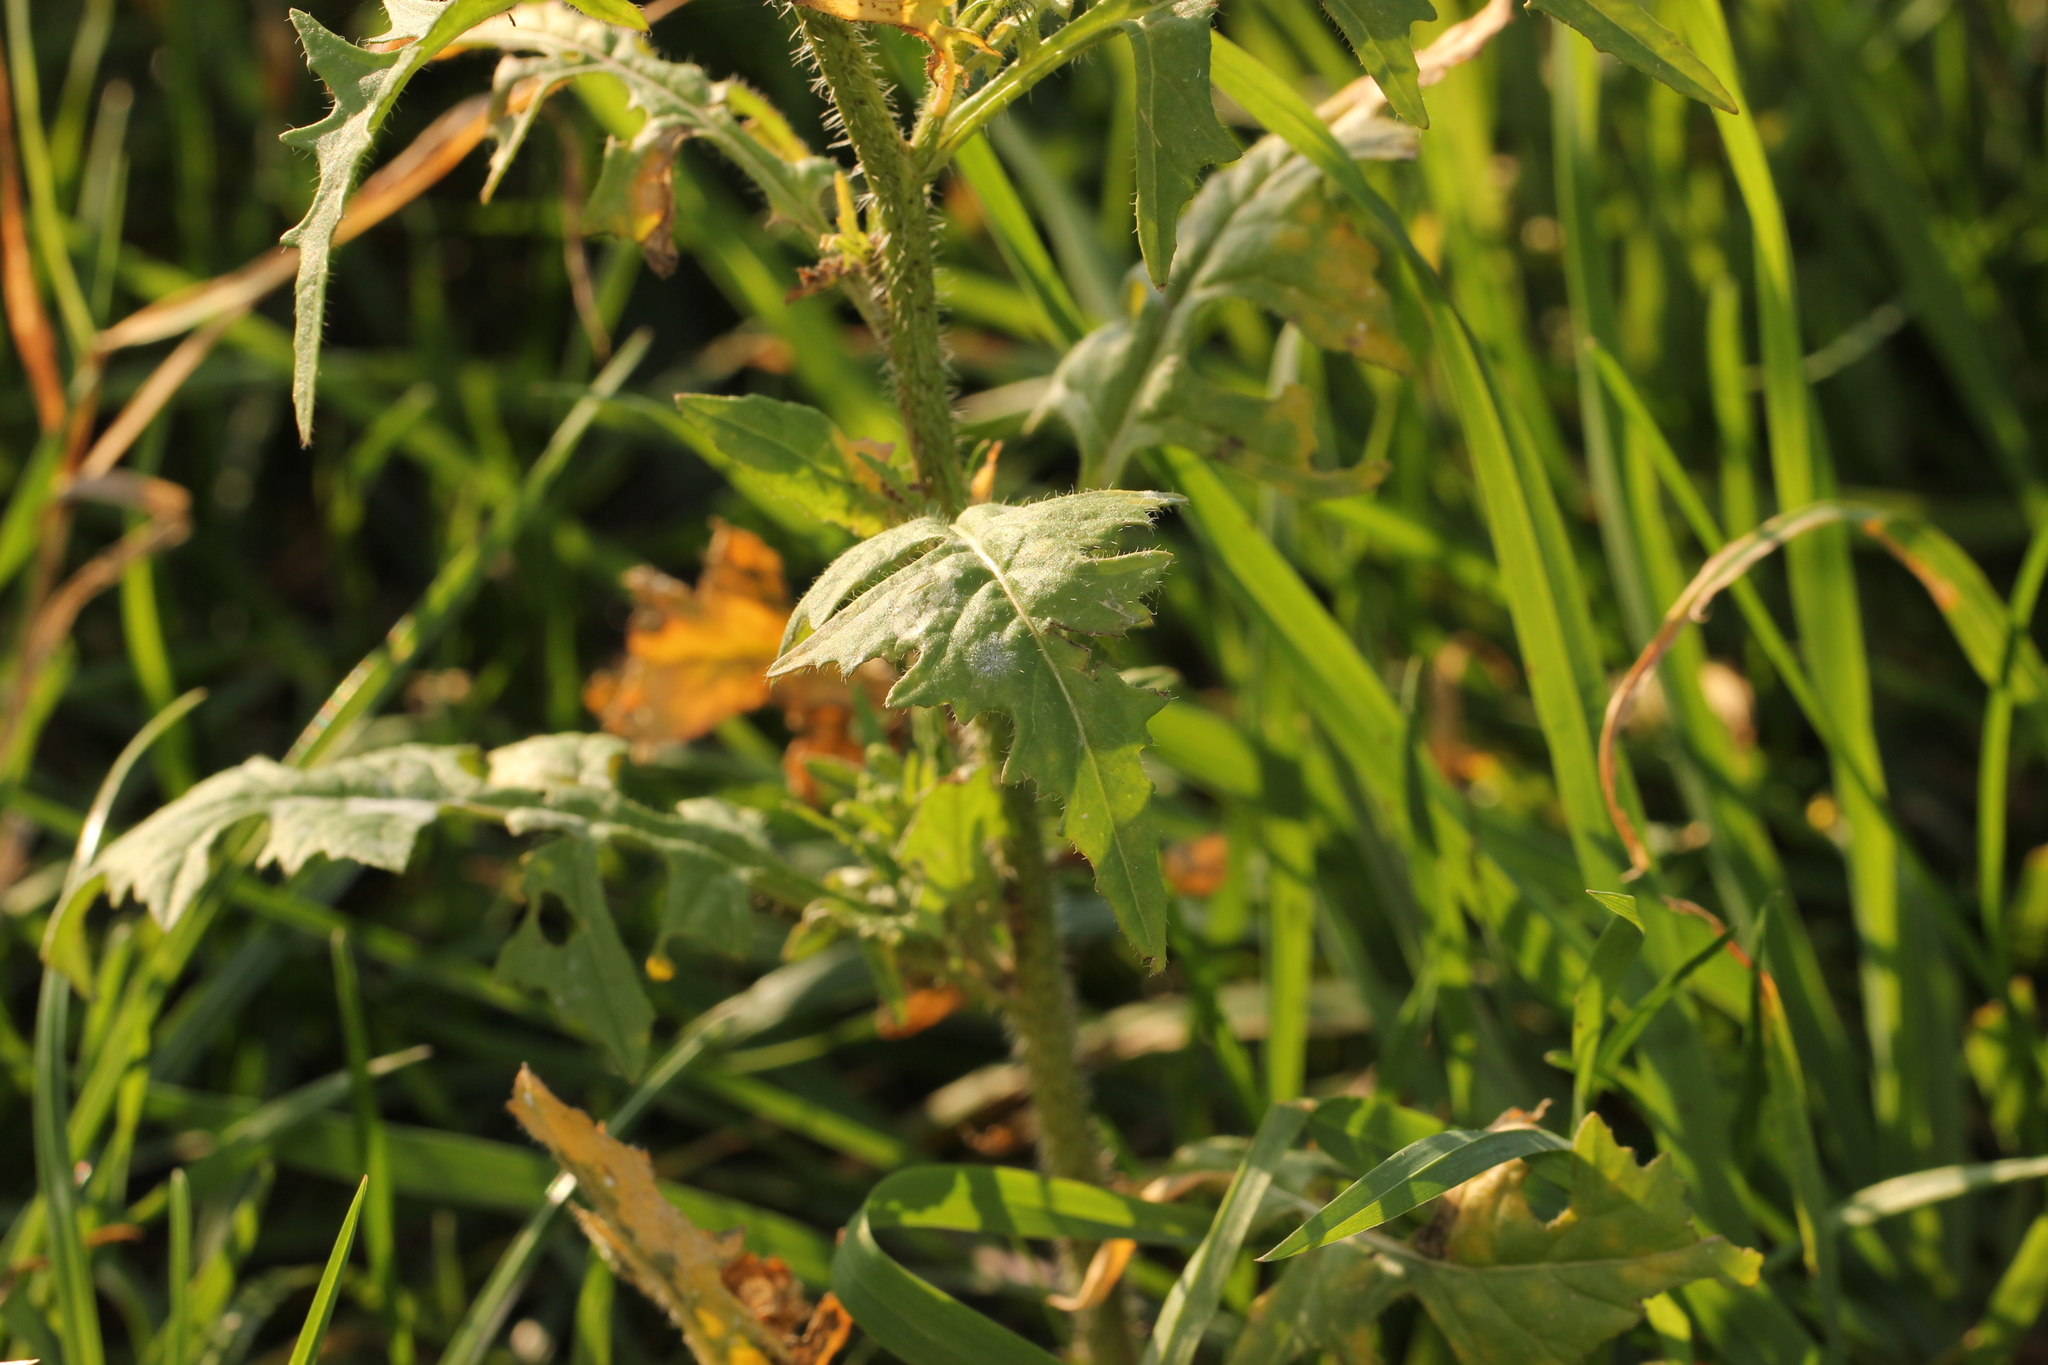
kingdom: Plantae
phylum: Tracheophyta
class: Magnoliopsida
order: Brassicales
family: Brassicaceae
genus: Sisymbrium
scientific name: Sisymbrium loeselii
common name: False london-rocket
